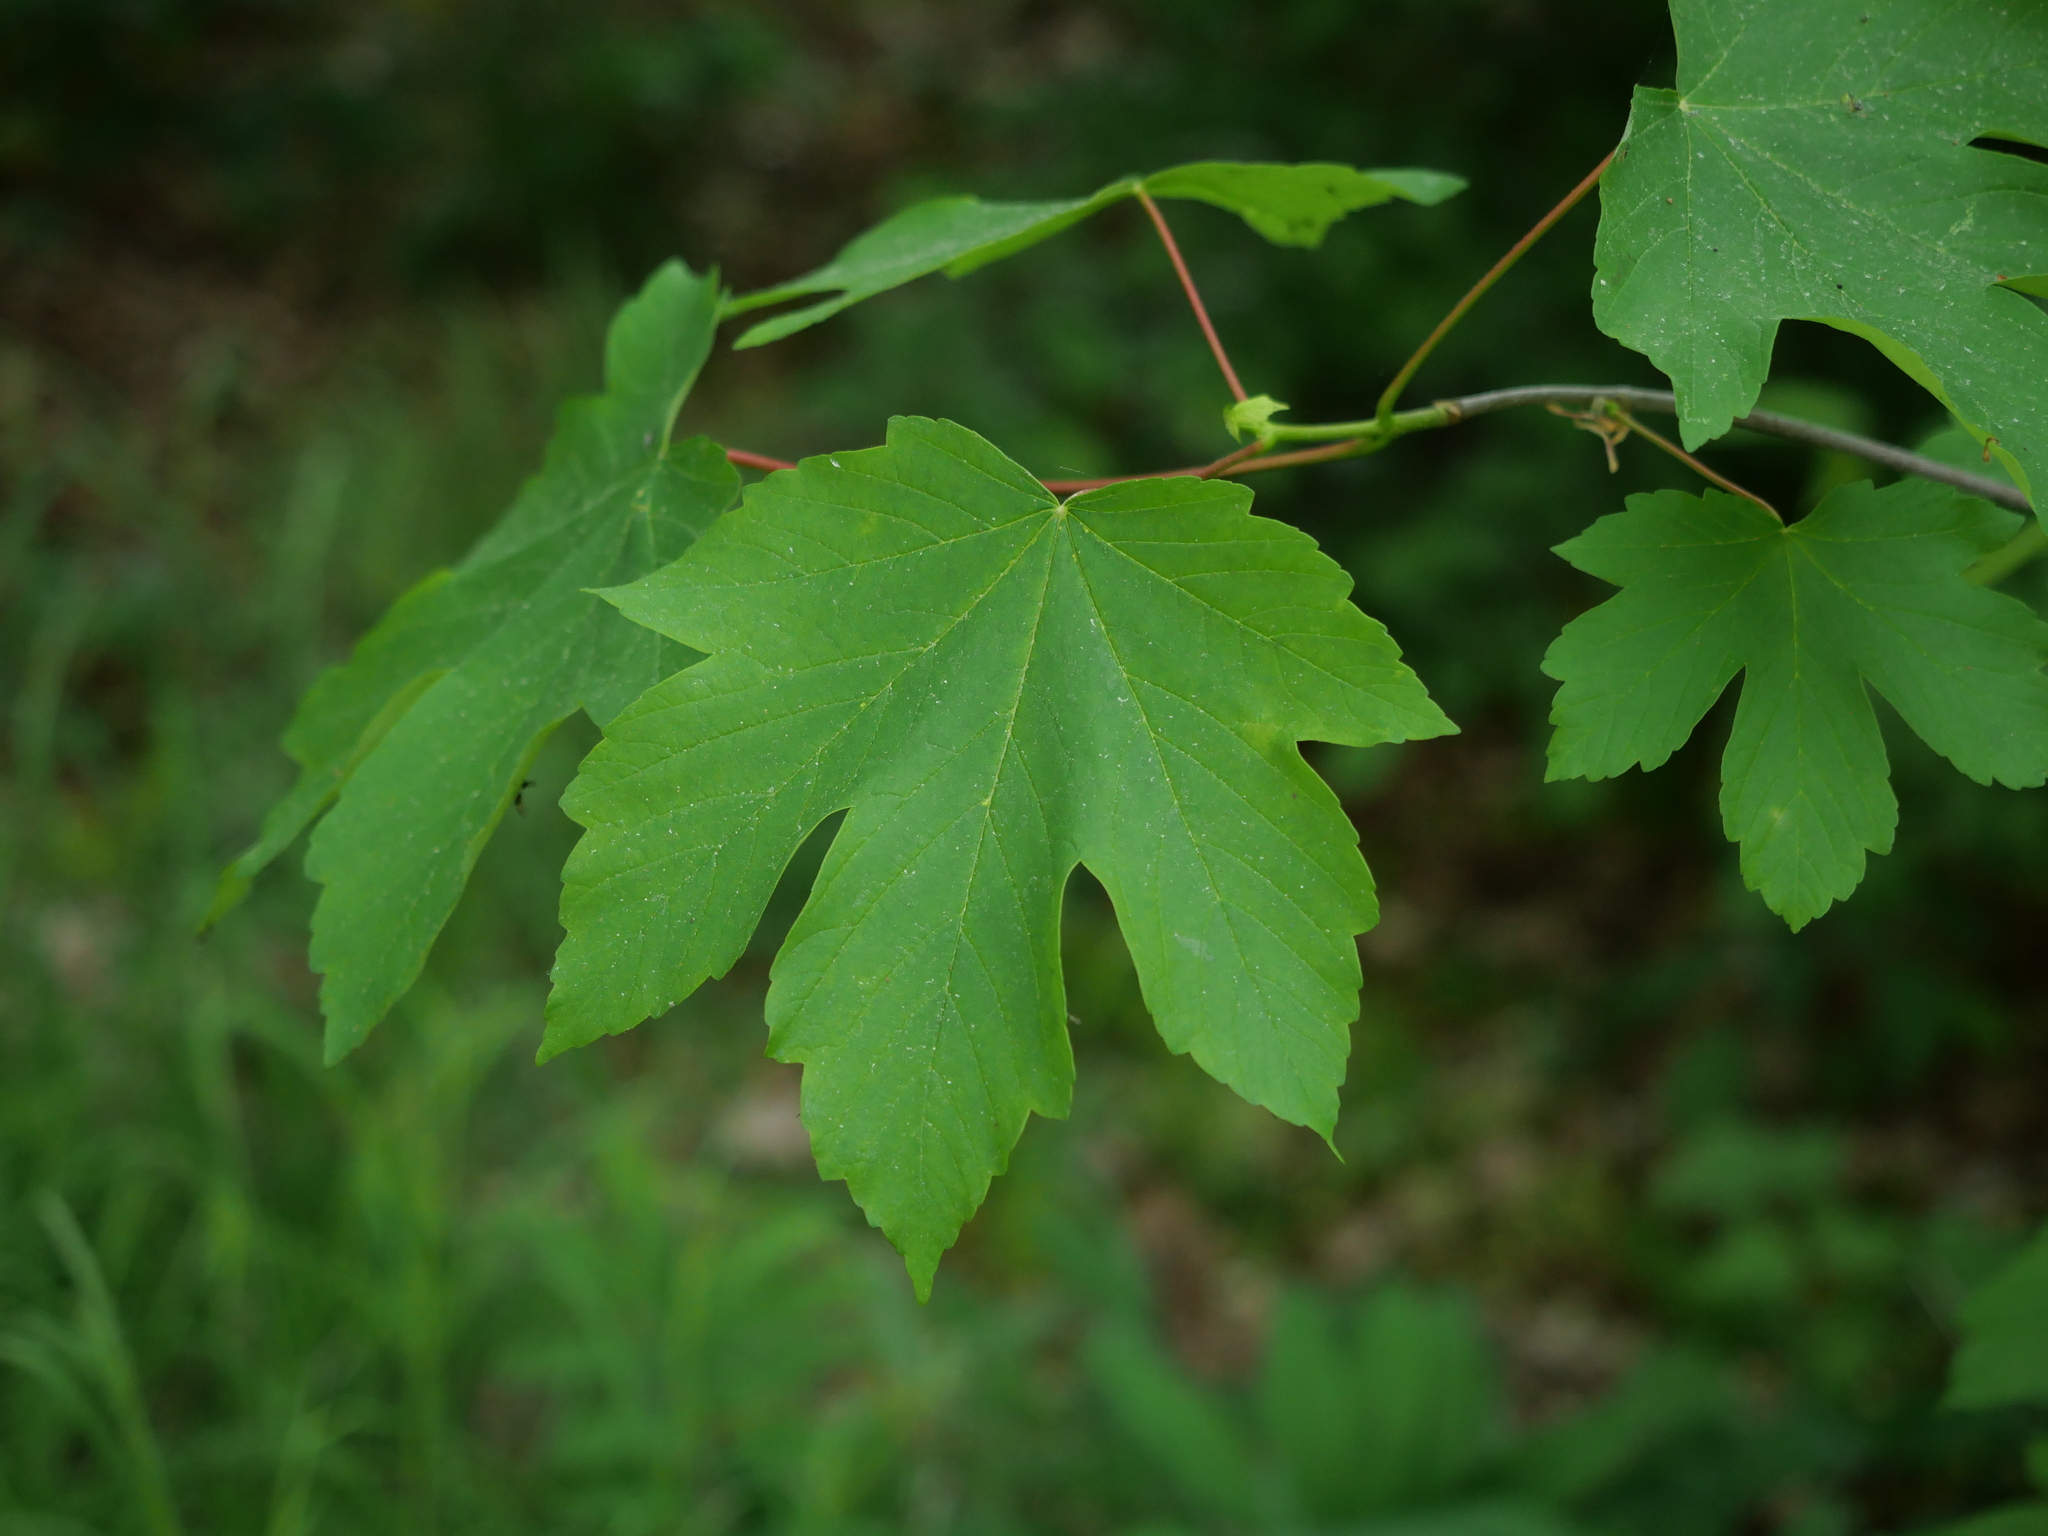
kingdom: Plantae
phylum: Tracheophyta
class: Magnoliopsida
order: Sapindales
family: Sapindaceae
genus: Acer
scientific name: Acer pseudoplatanus
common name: Sycamore
